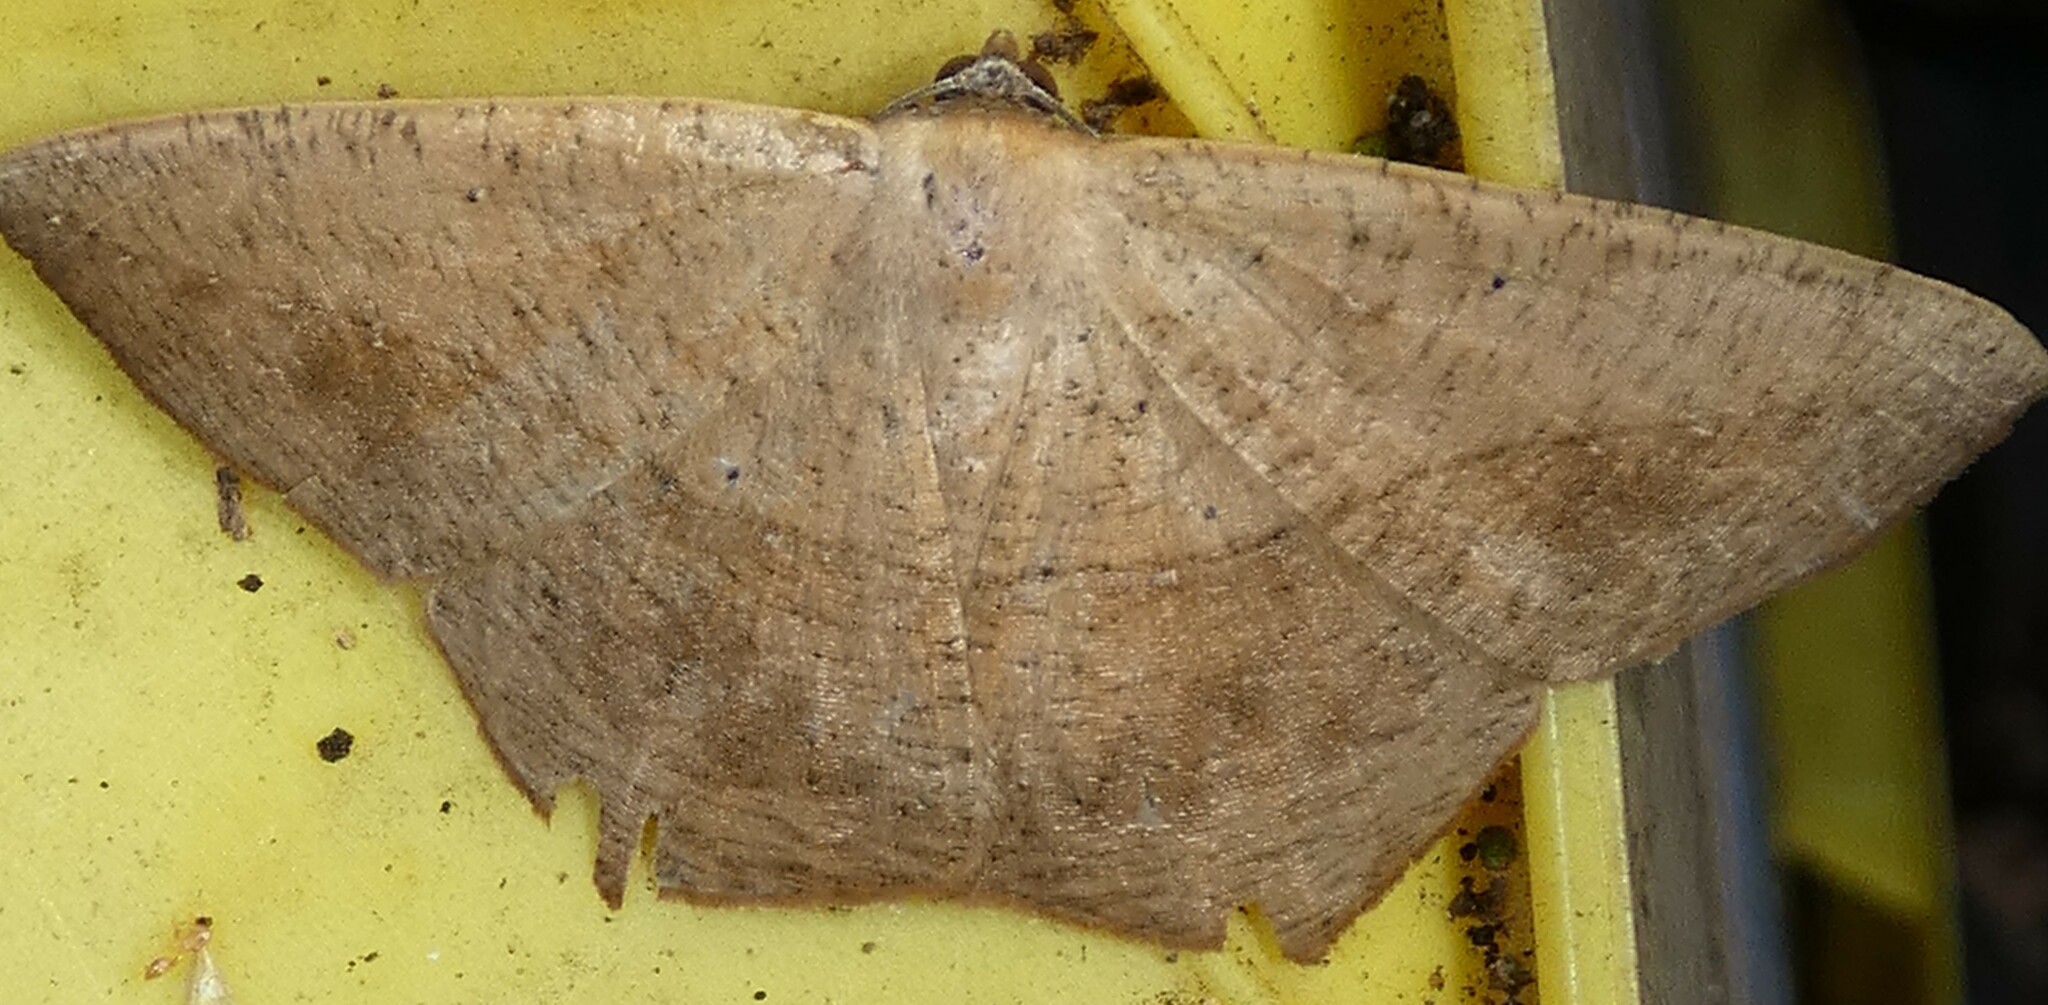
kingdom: Animalia
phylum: Arthropoda
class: Insecta
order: Lepidoptera
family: Geometridae
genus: Prochoerodes
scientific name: Prochoerodes lineola
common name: Large maple spanworm
